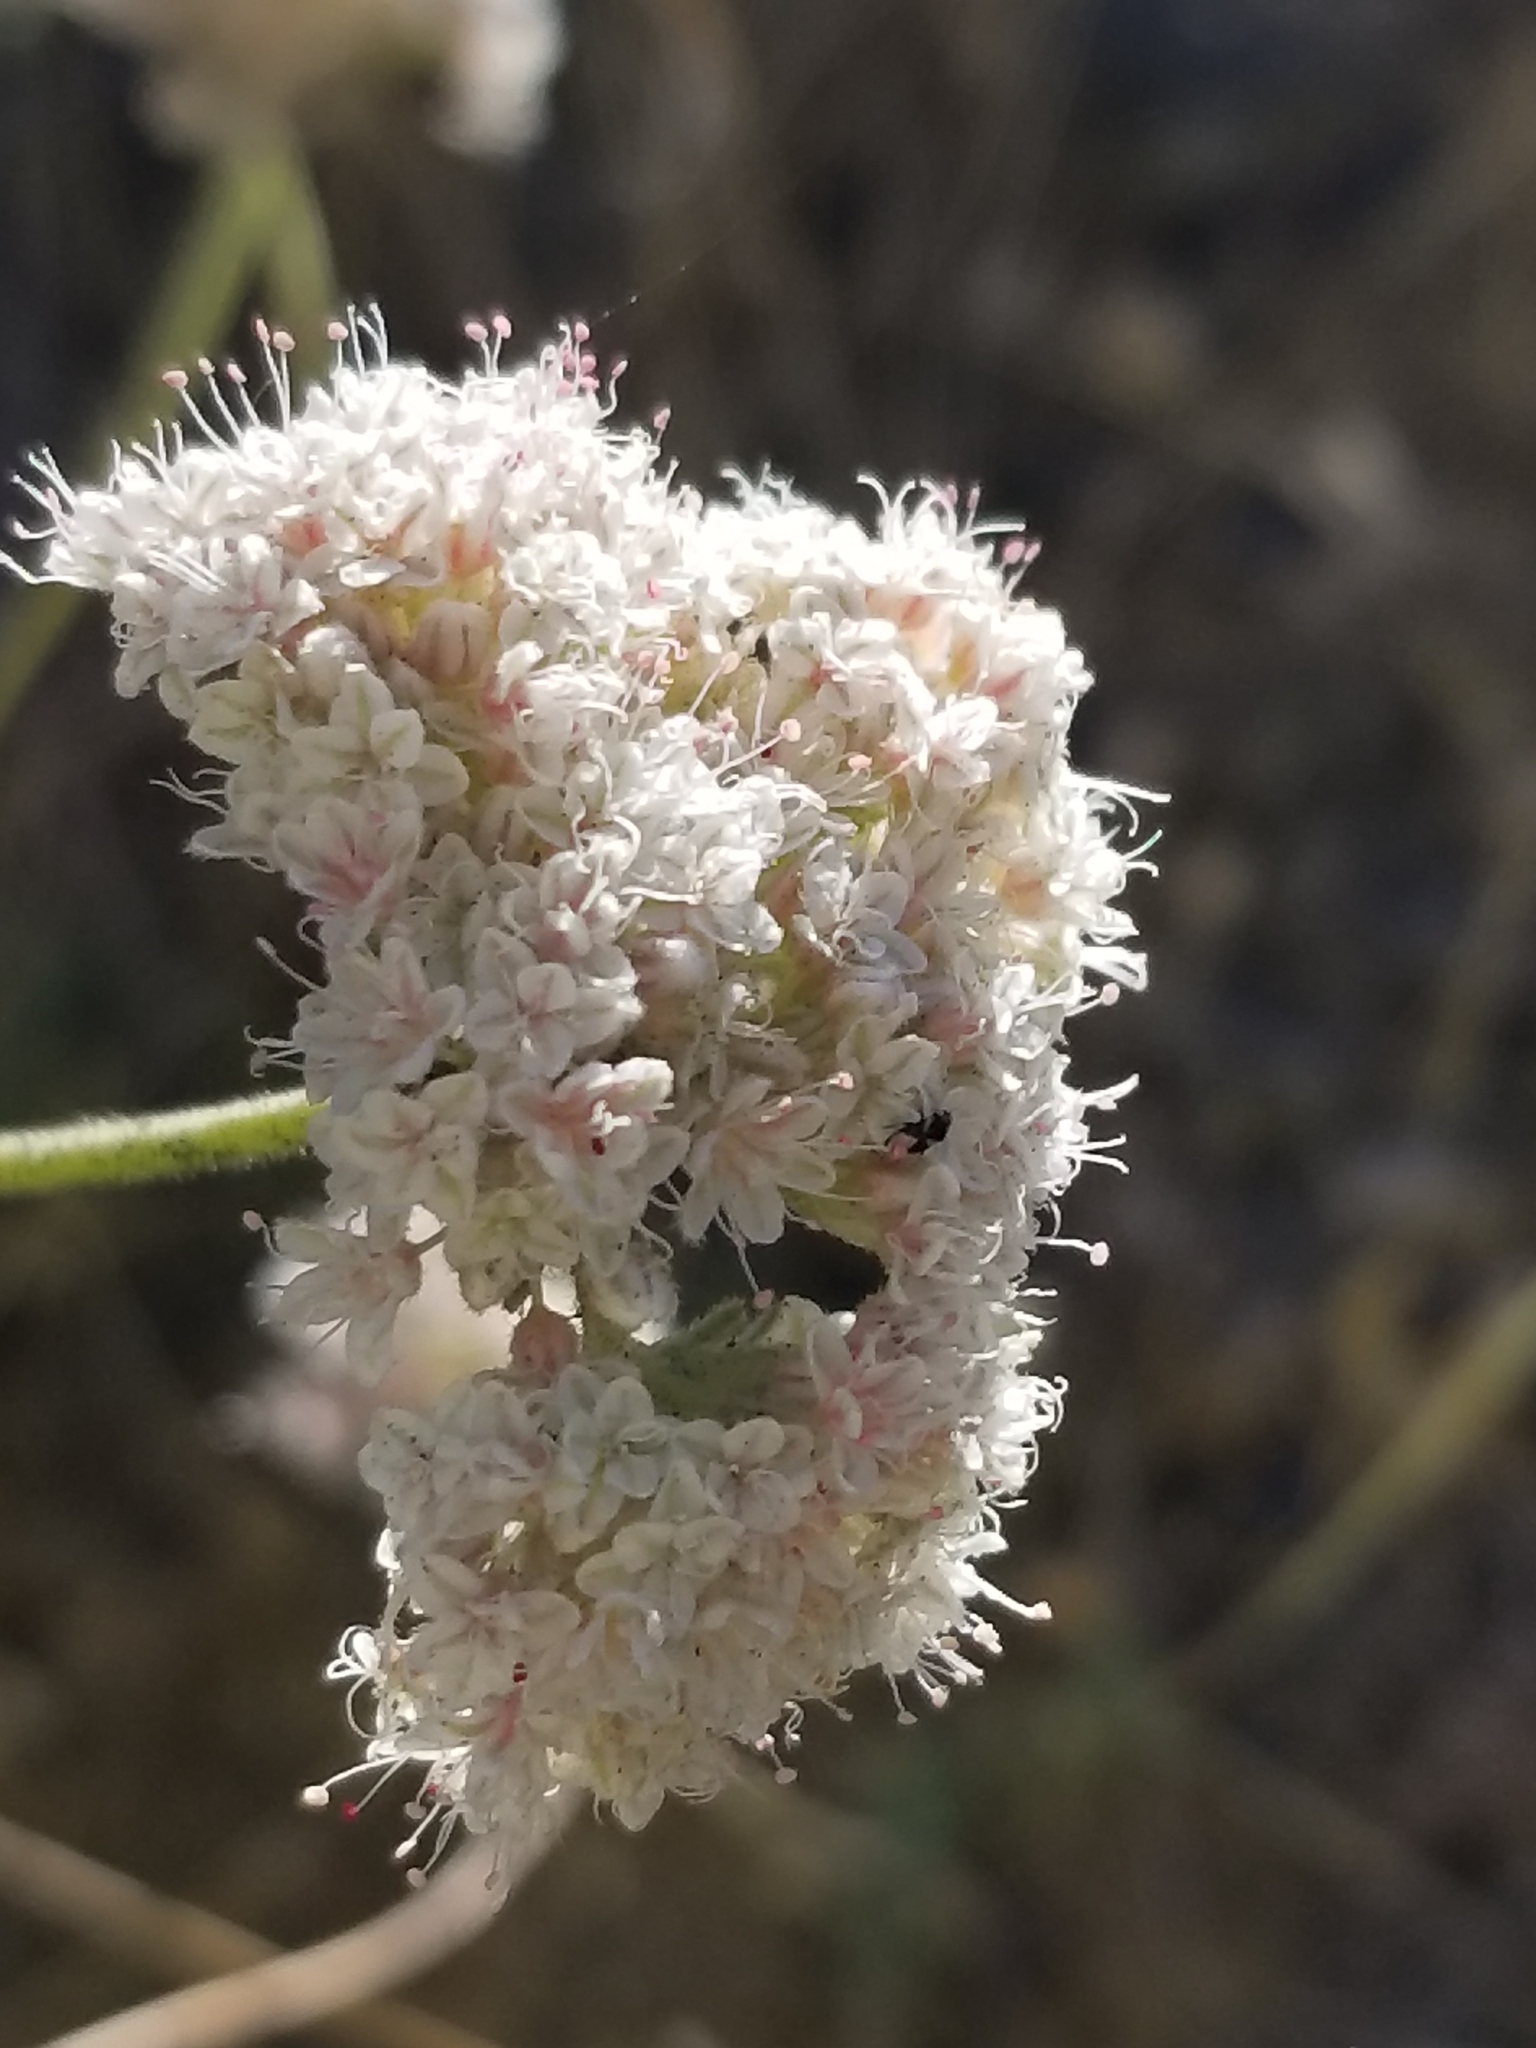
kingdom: Plantae
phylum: Tracheophyta
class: Magnoliopsida
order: Caryophyllales
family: Polygonaceae
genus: Eriogonum
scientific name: Eriogonum fasciculatum
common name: California wild buckwheat
